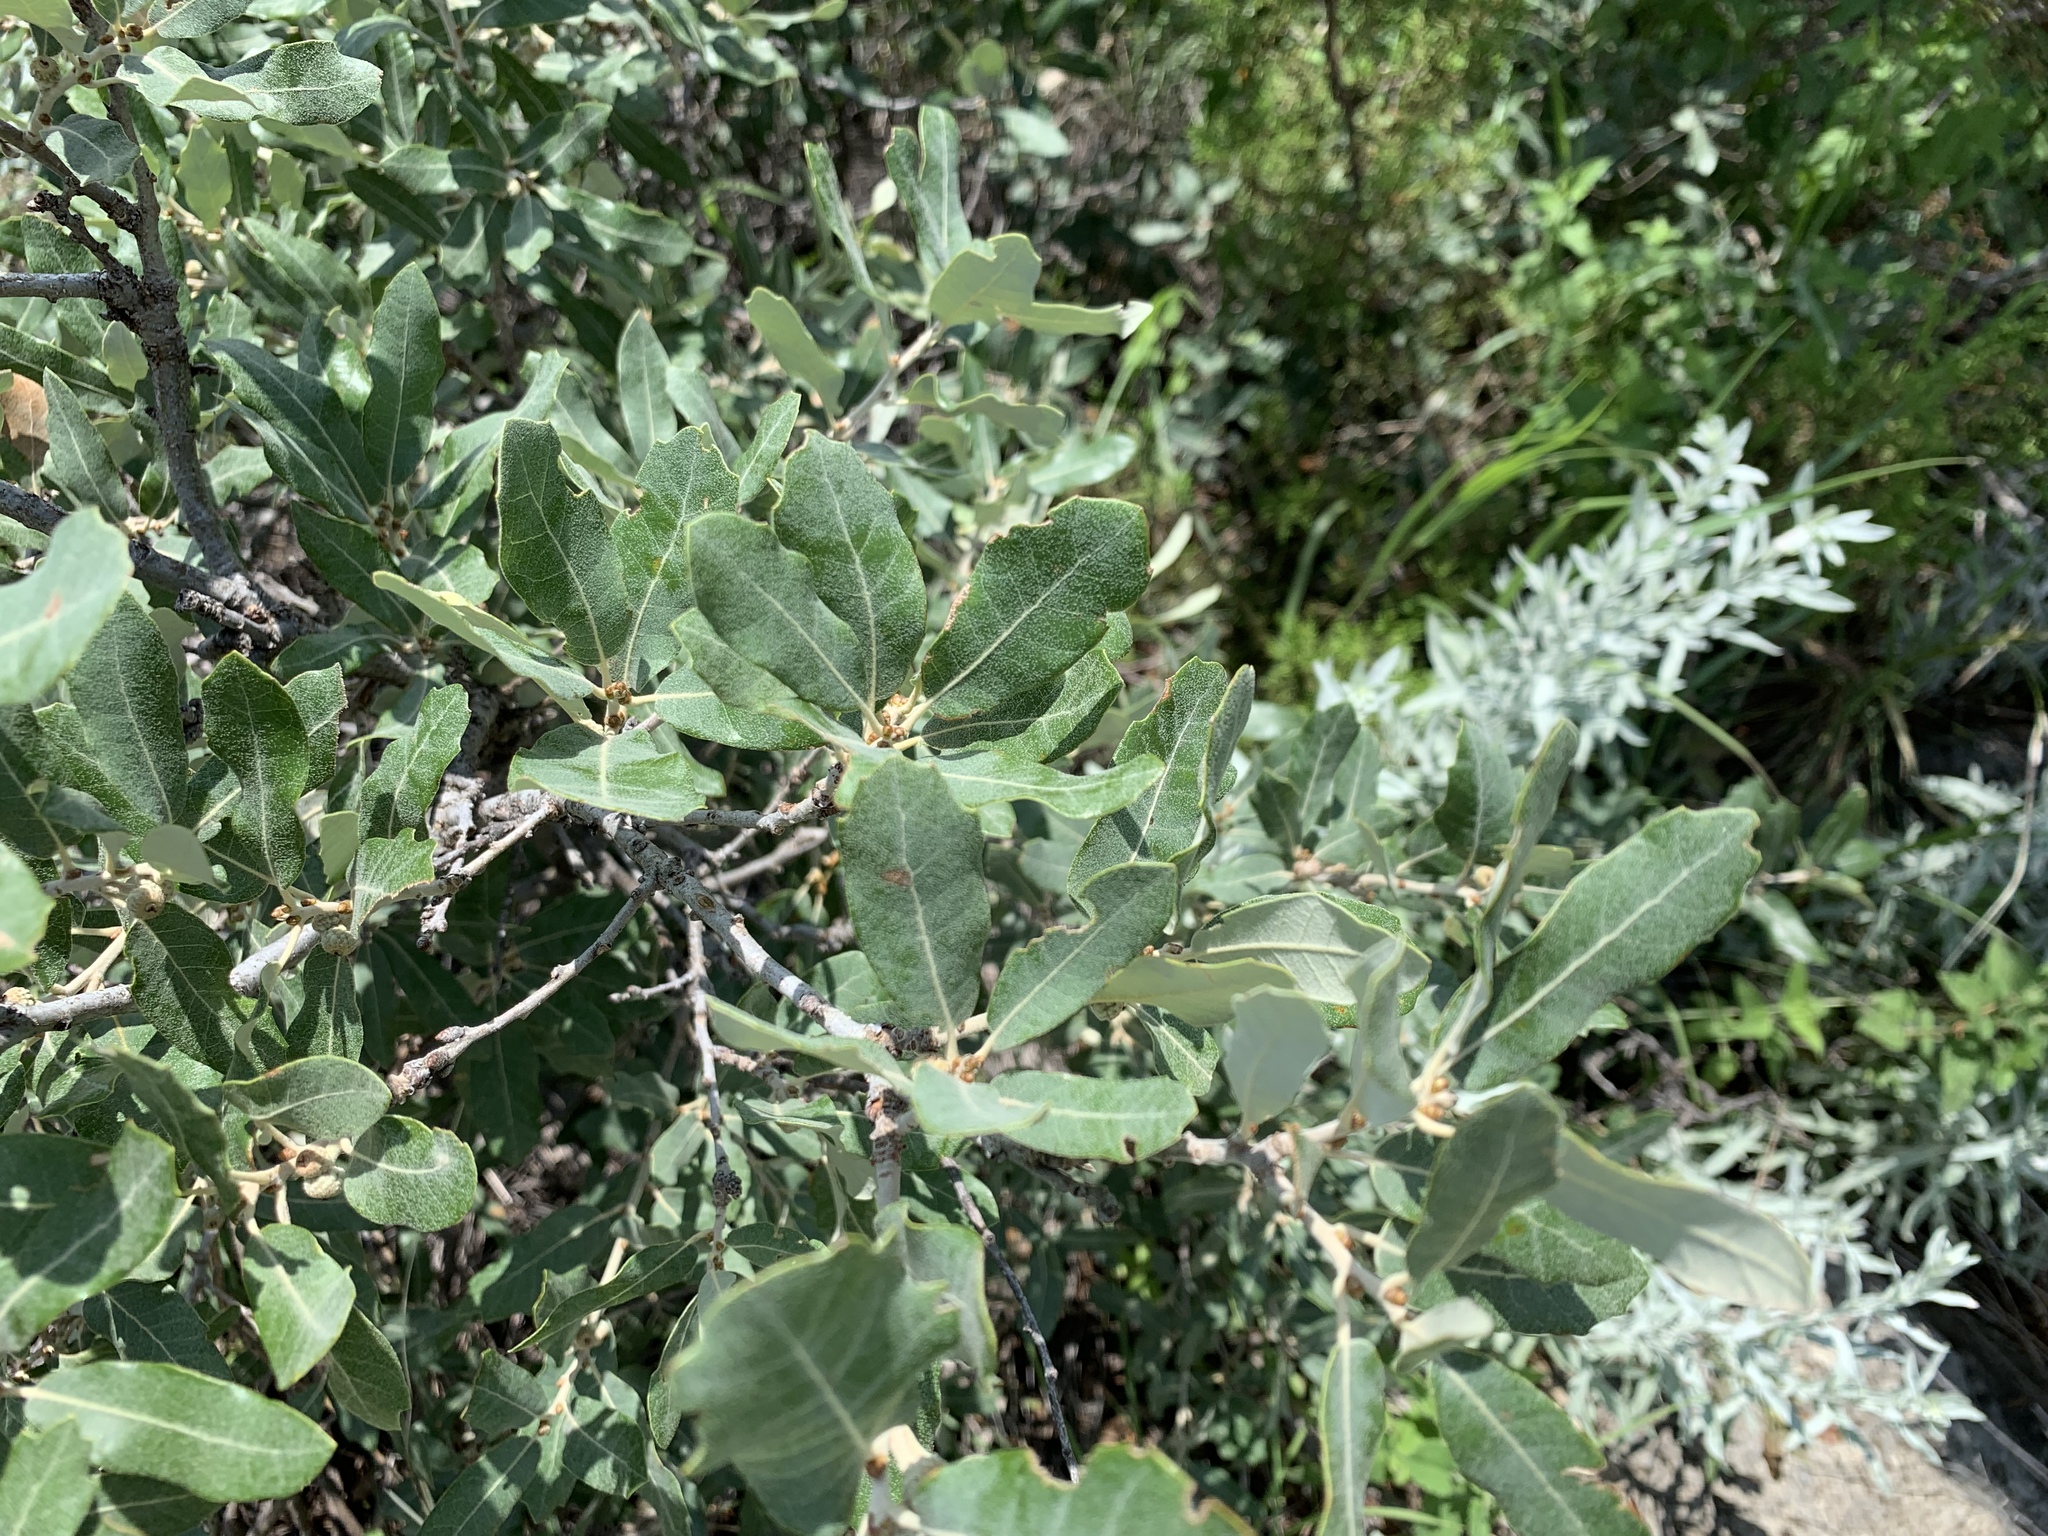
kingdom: Plantae
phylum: Tracheophyta
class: Magnoliopsida
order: Fagales
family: Fagaceae
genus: Quercus
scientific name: Quercus mohriana
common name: Mohr oak
